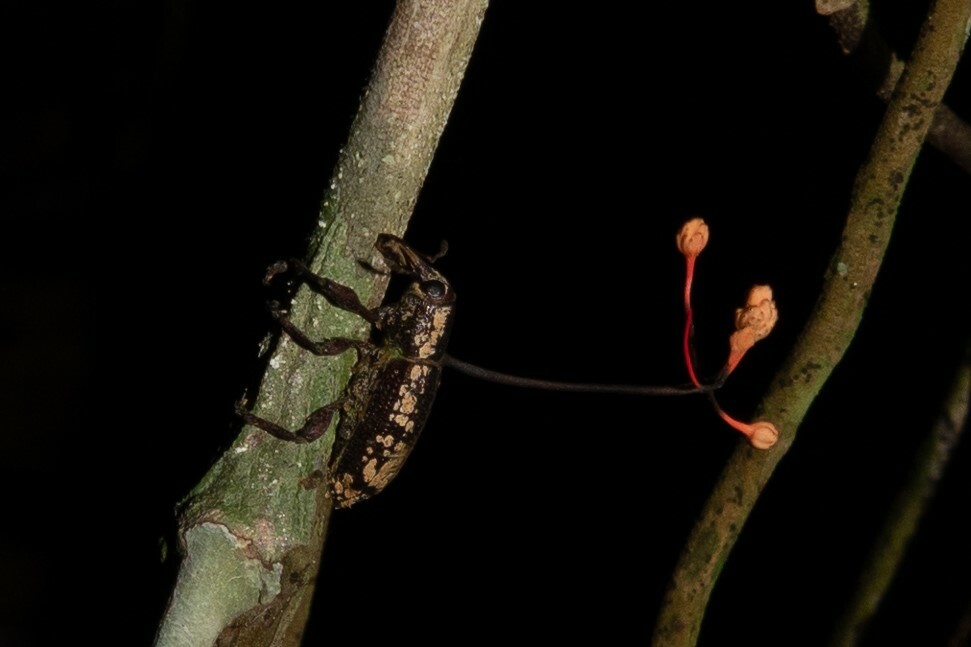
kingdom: Fungi
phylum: Ascomycota
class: Sordariomycetes
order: Hypocreales
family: Ophiocordycipitaceae
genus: Ophiocordyceps
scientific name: Ophiocordyceps curculionum
